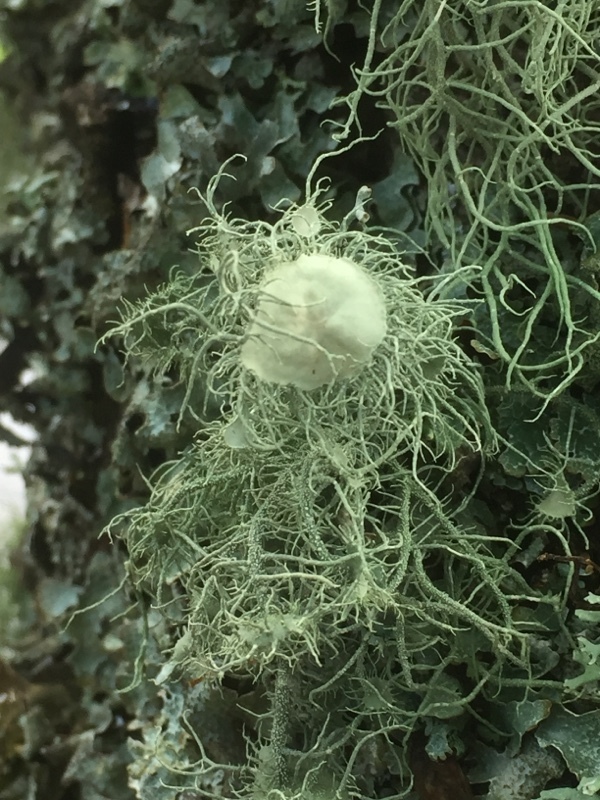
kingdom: Fungi
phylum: Ascomycota
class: Lecanoromycetes
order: Lecanorales
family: Parmeliaceae
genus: Usnea
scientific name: Usnea florida
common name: Witches' whiskers lichen
